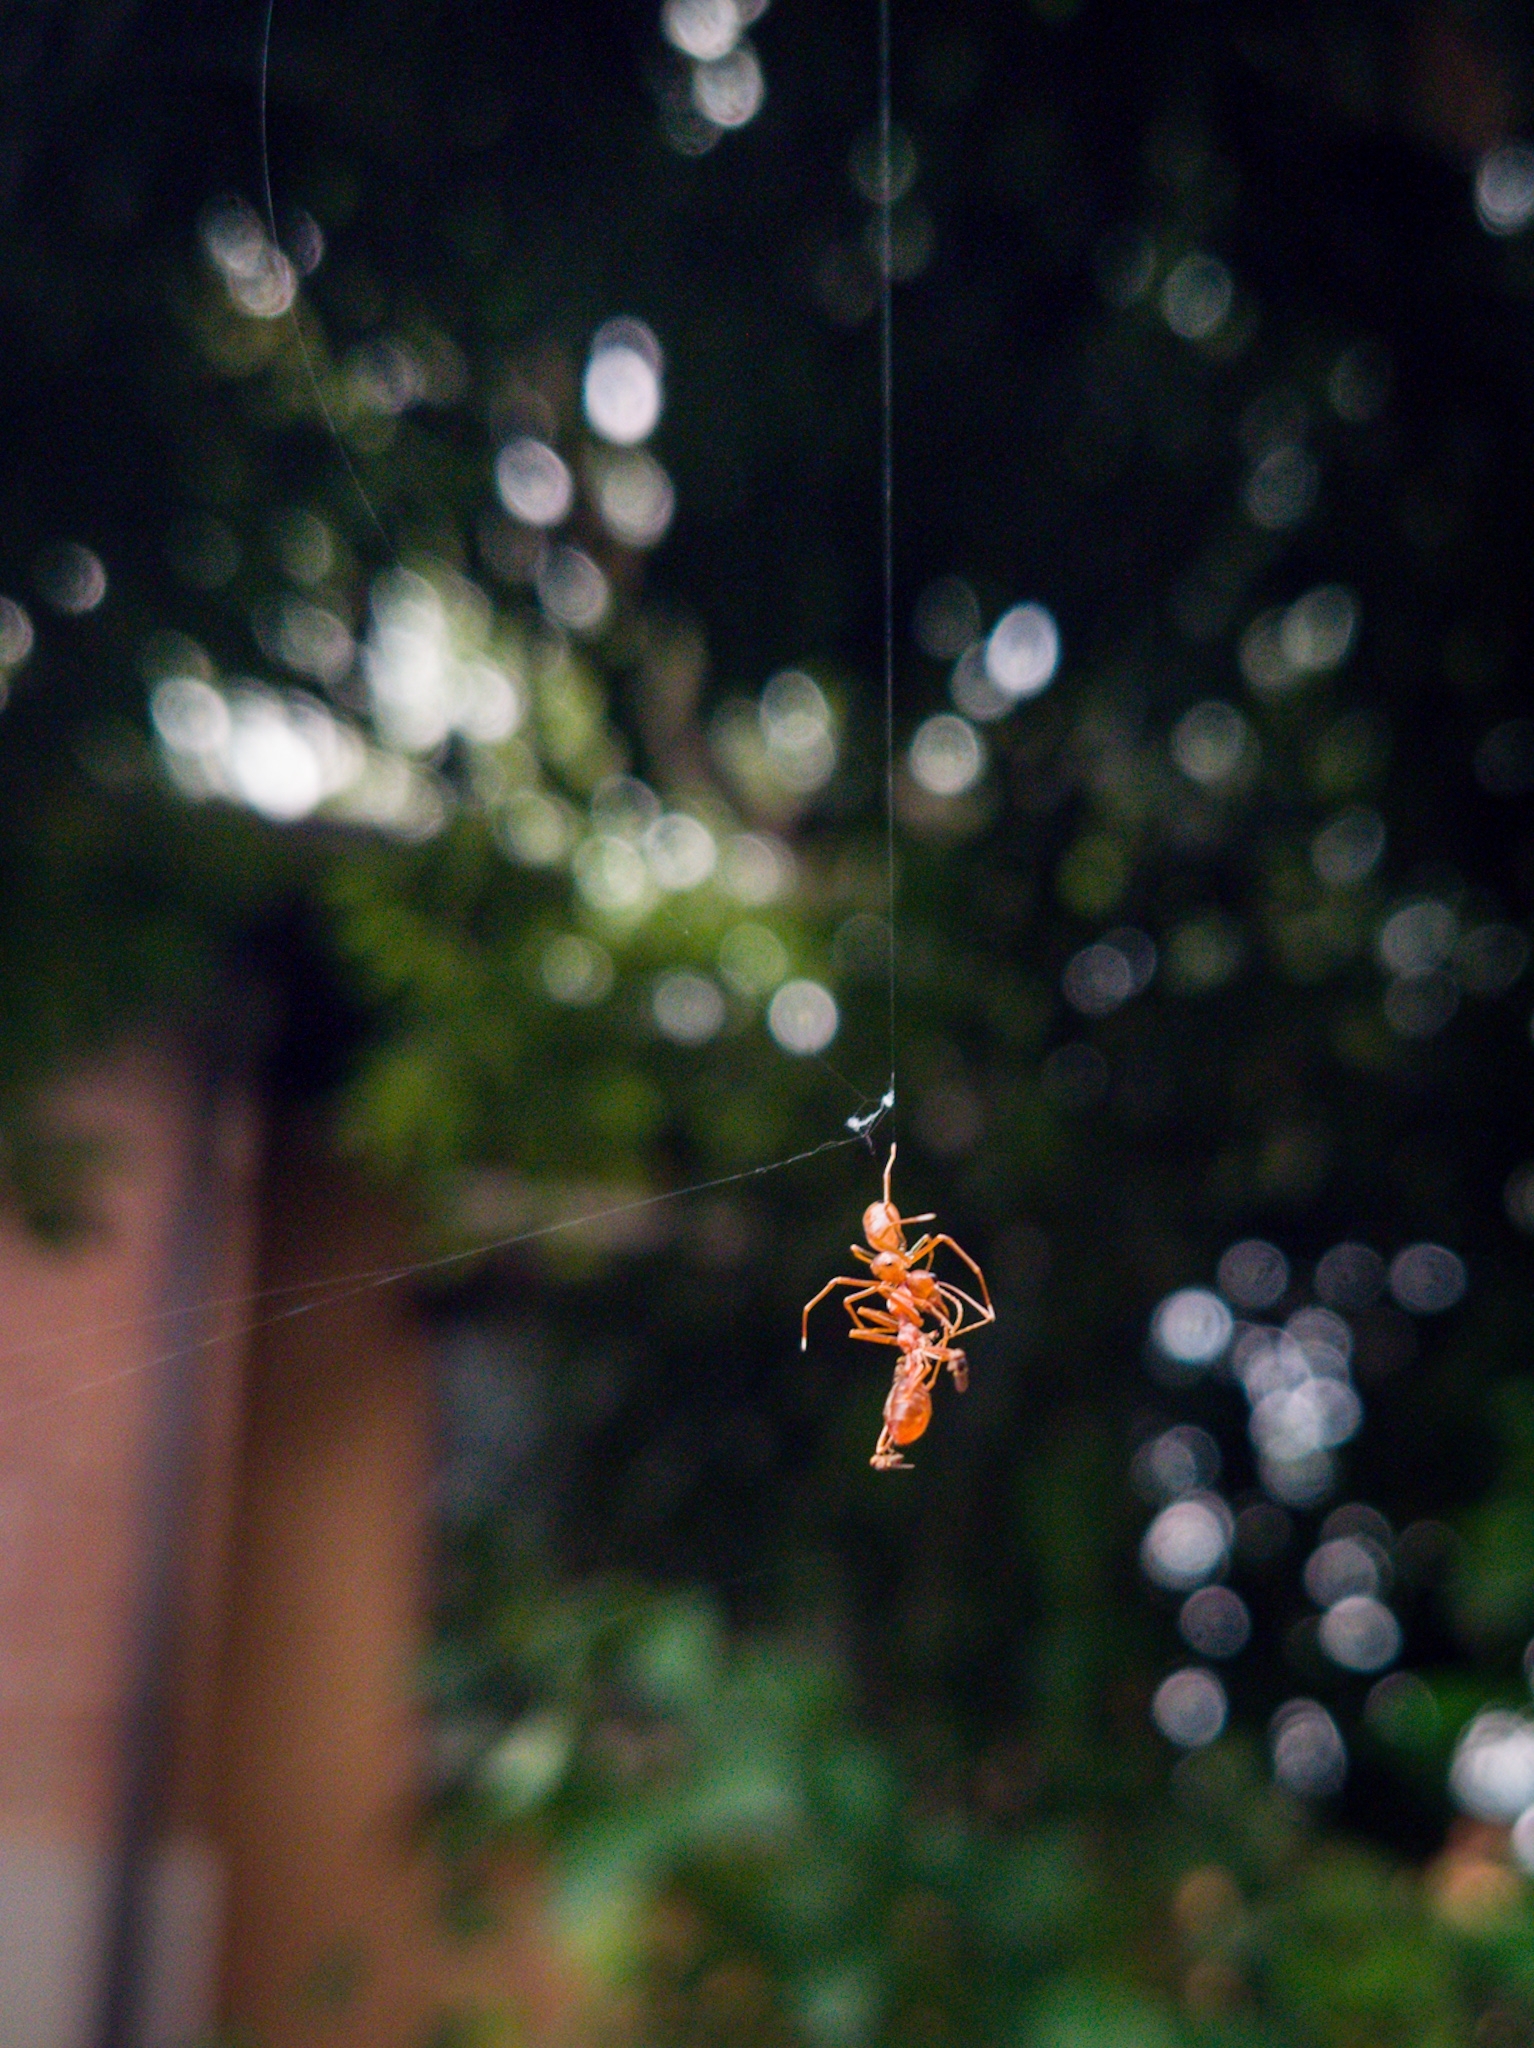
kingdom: Animalia
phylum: Arthropoda
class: Arachnida
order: Araneae
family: Thomisidae
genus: Amyciaea
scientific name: Amyciaea forticeps
